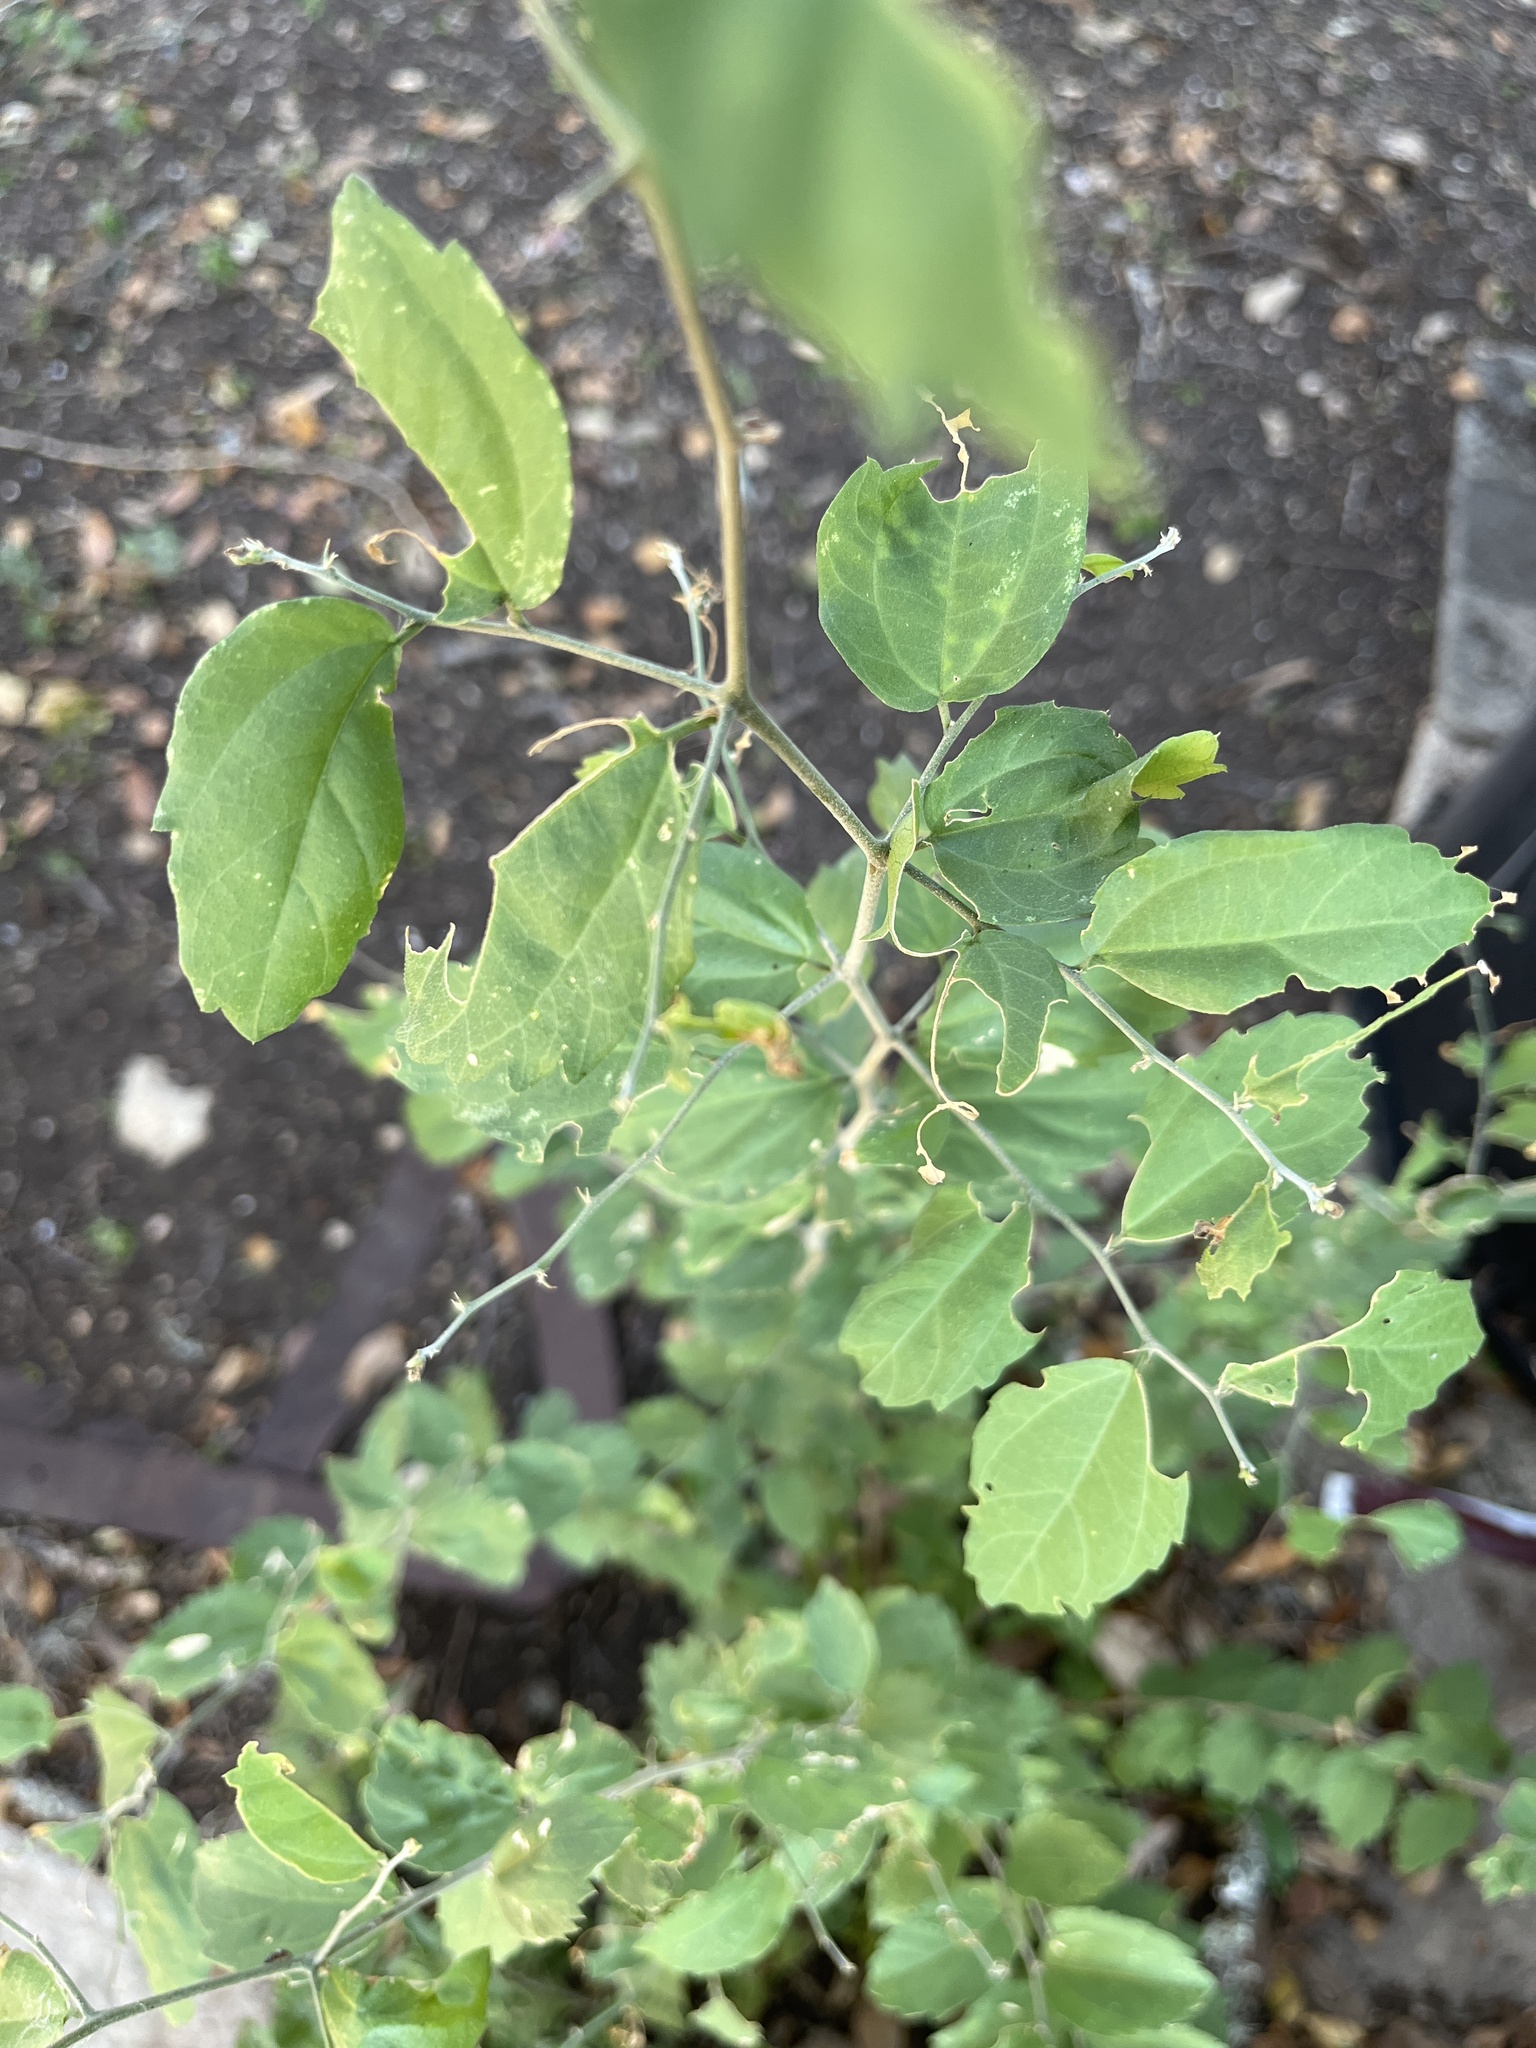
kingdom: Plantae
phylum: Tracheophyta
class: Magnoliopsida
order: Rosales
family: Cannabaceae
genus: Celtis
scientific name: Celtis pallida
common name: Desert hackberry
